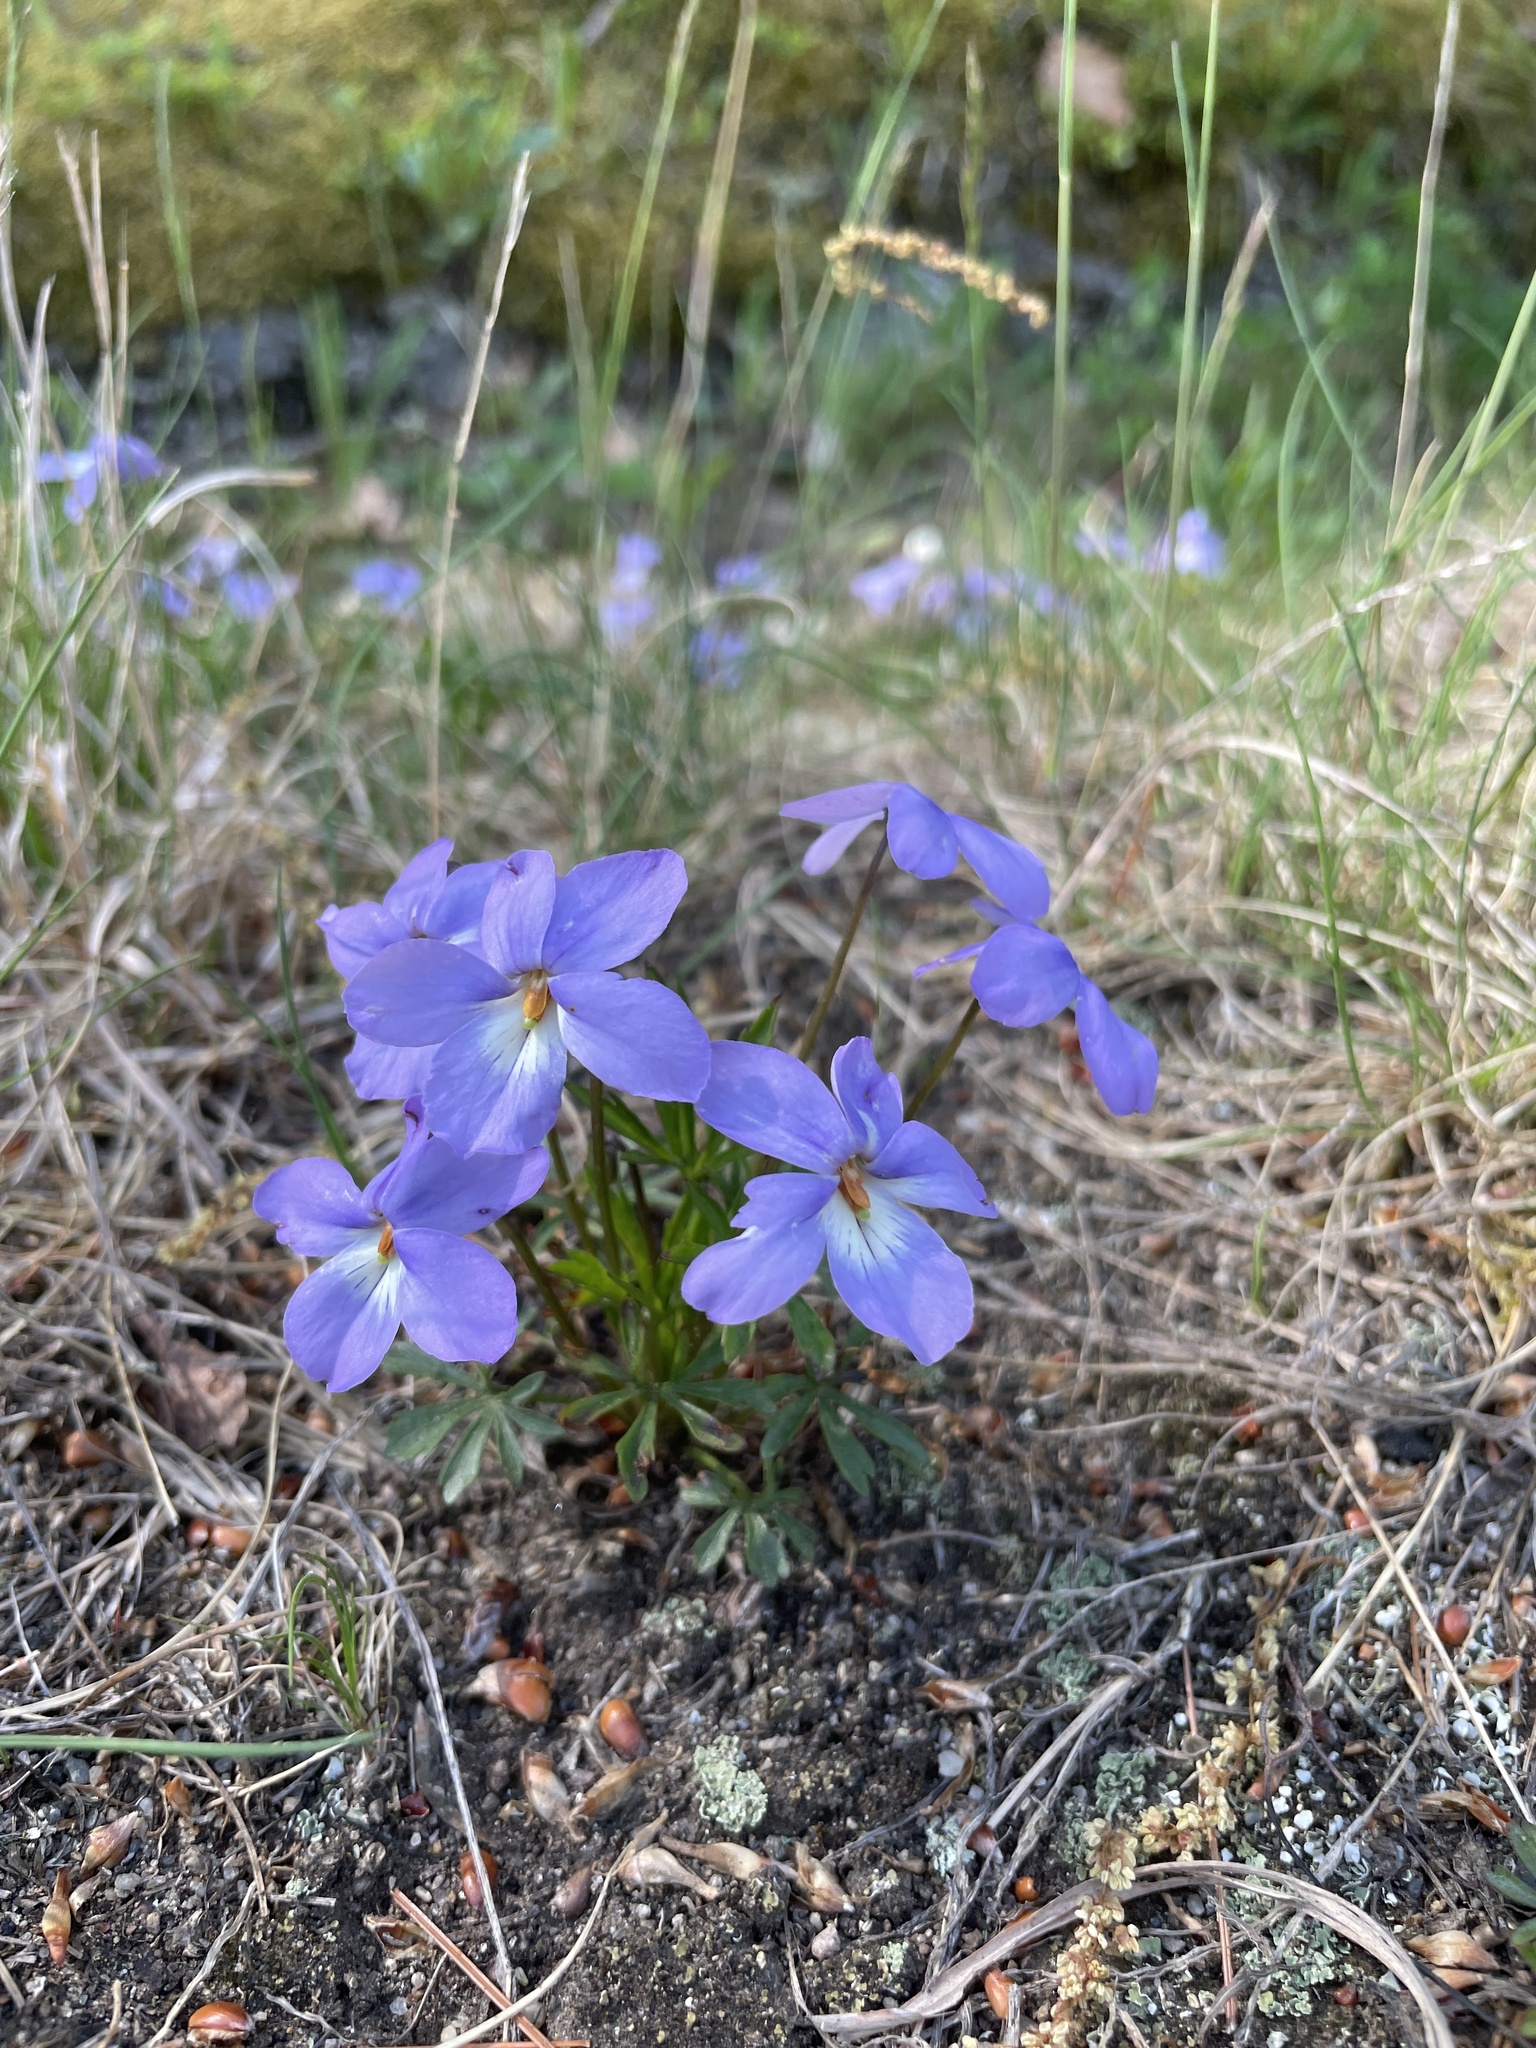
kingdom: Plantae
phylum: Tracheophyta
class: Magnoliopsida
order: Malpighiales
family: Violaceae
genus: Viola
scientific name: Viola pedata
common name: Pansy violet
